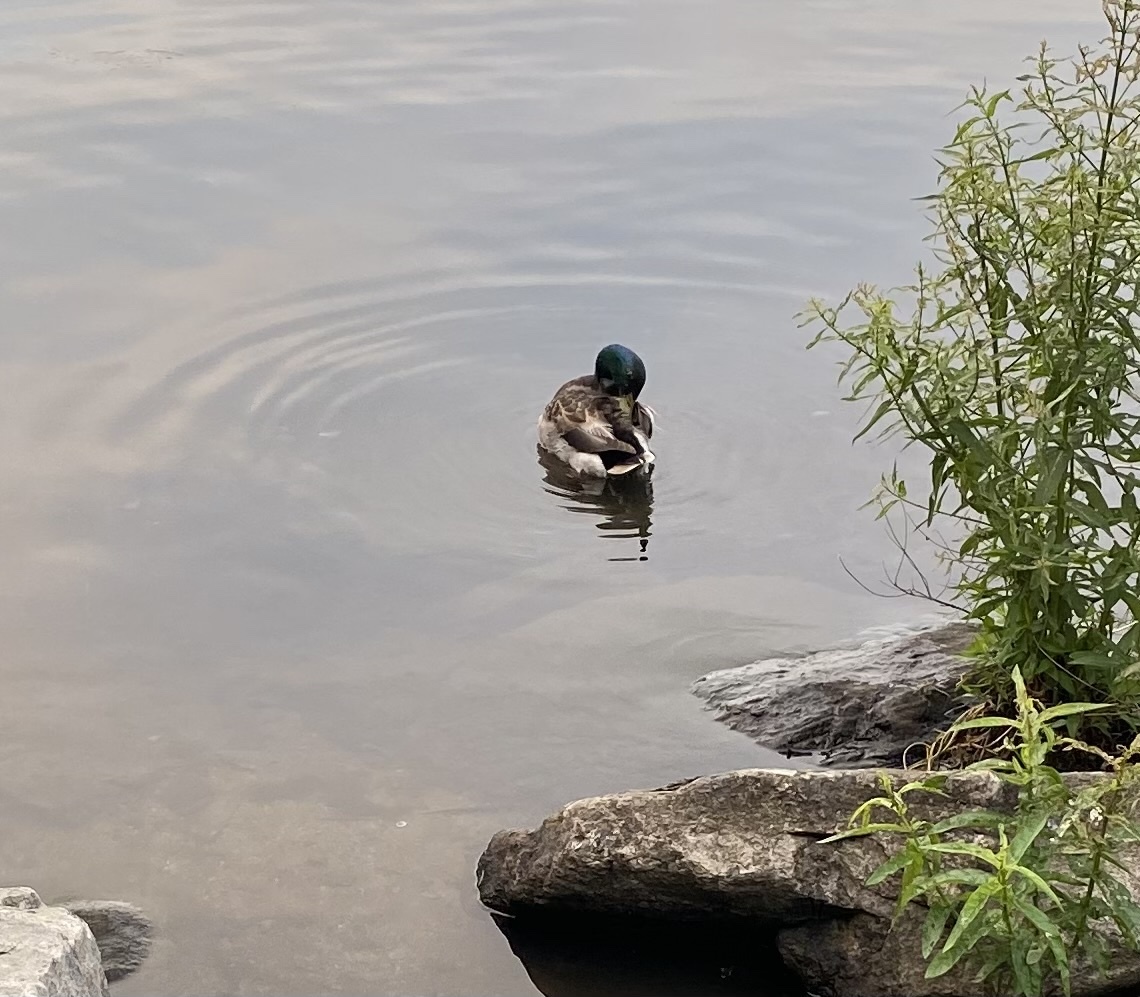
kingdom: Animalia
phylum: Chordata
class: Aves
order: Anseriformes
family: Anatidae
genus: Anas
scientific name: Anas platyrhynchos
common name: Mallard
